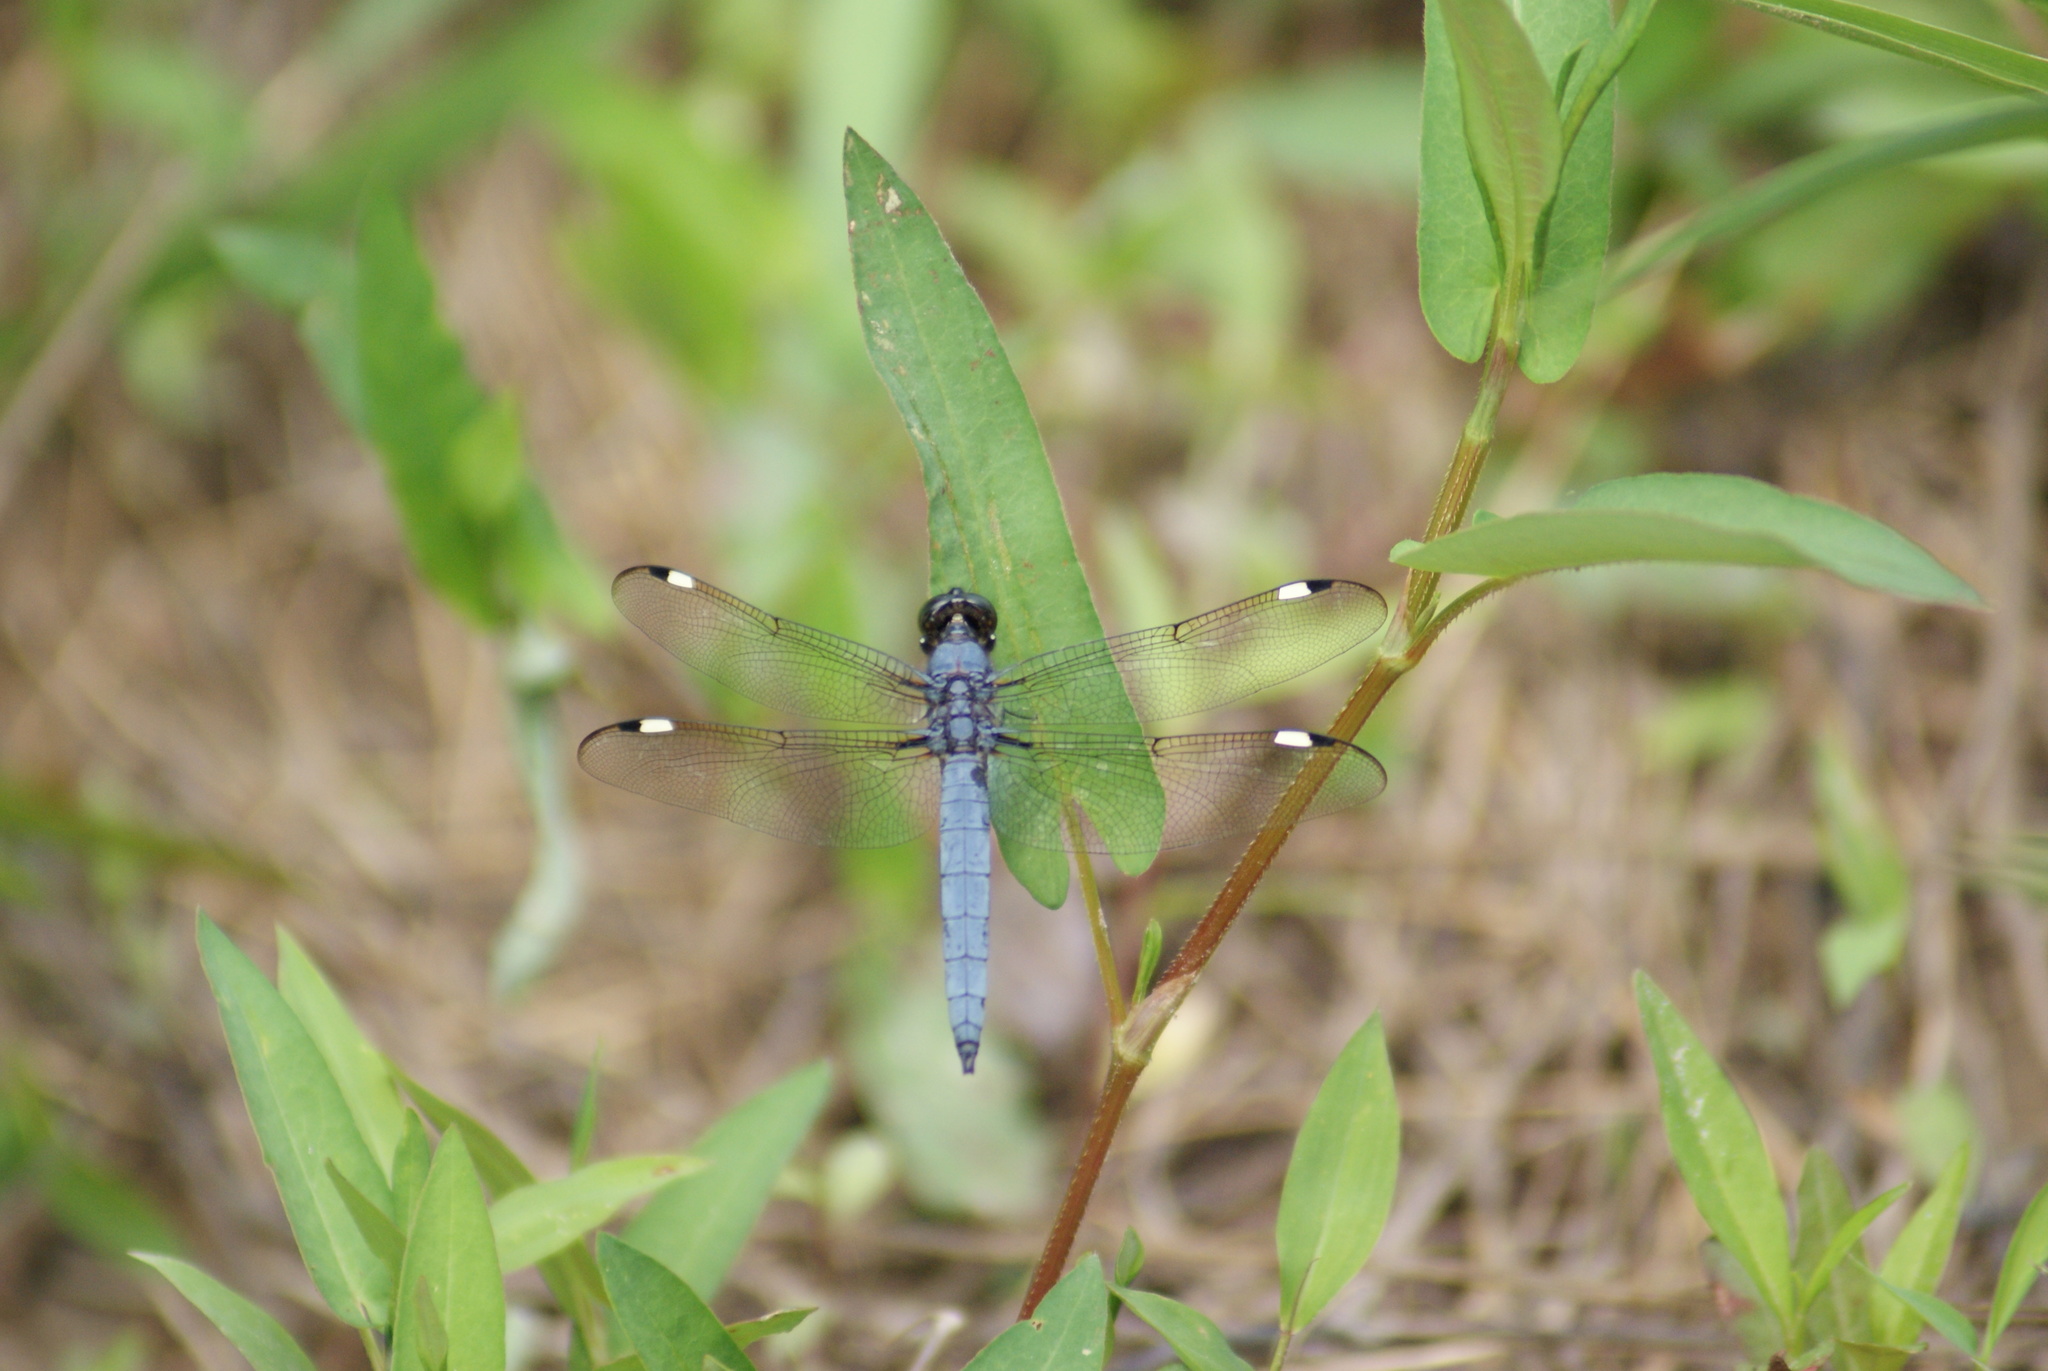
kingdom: Animalia
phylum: Arthropoda
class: Insecta
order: Odonata
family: Libellulidae
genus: Libellula
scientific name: Libellula cyanea
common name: Spangled skimmer
